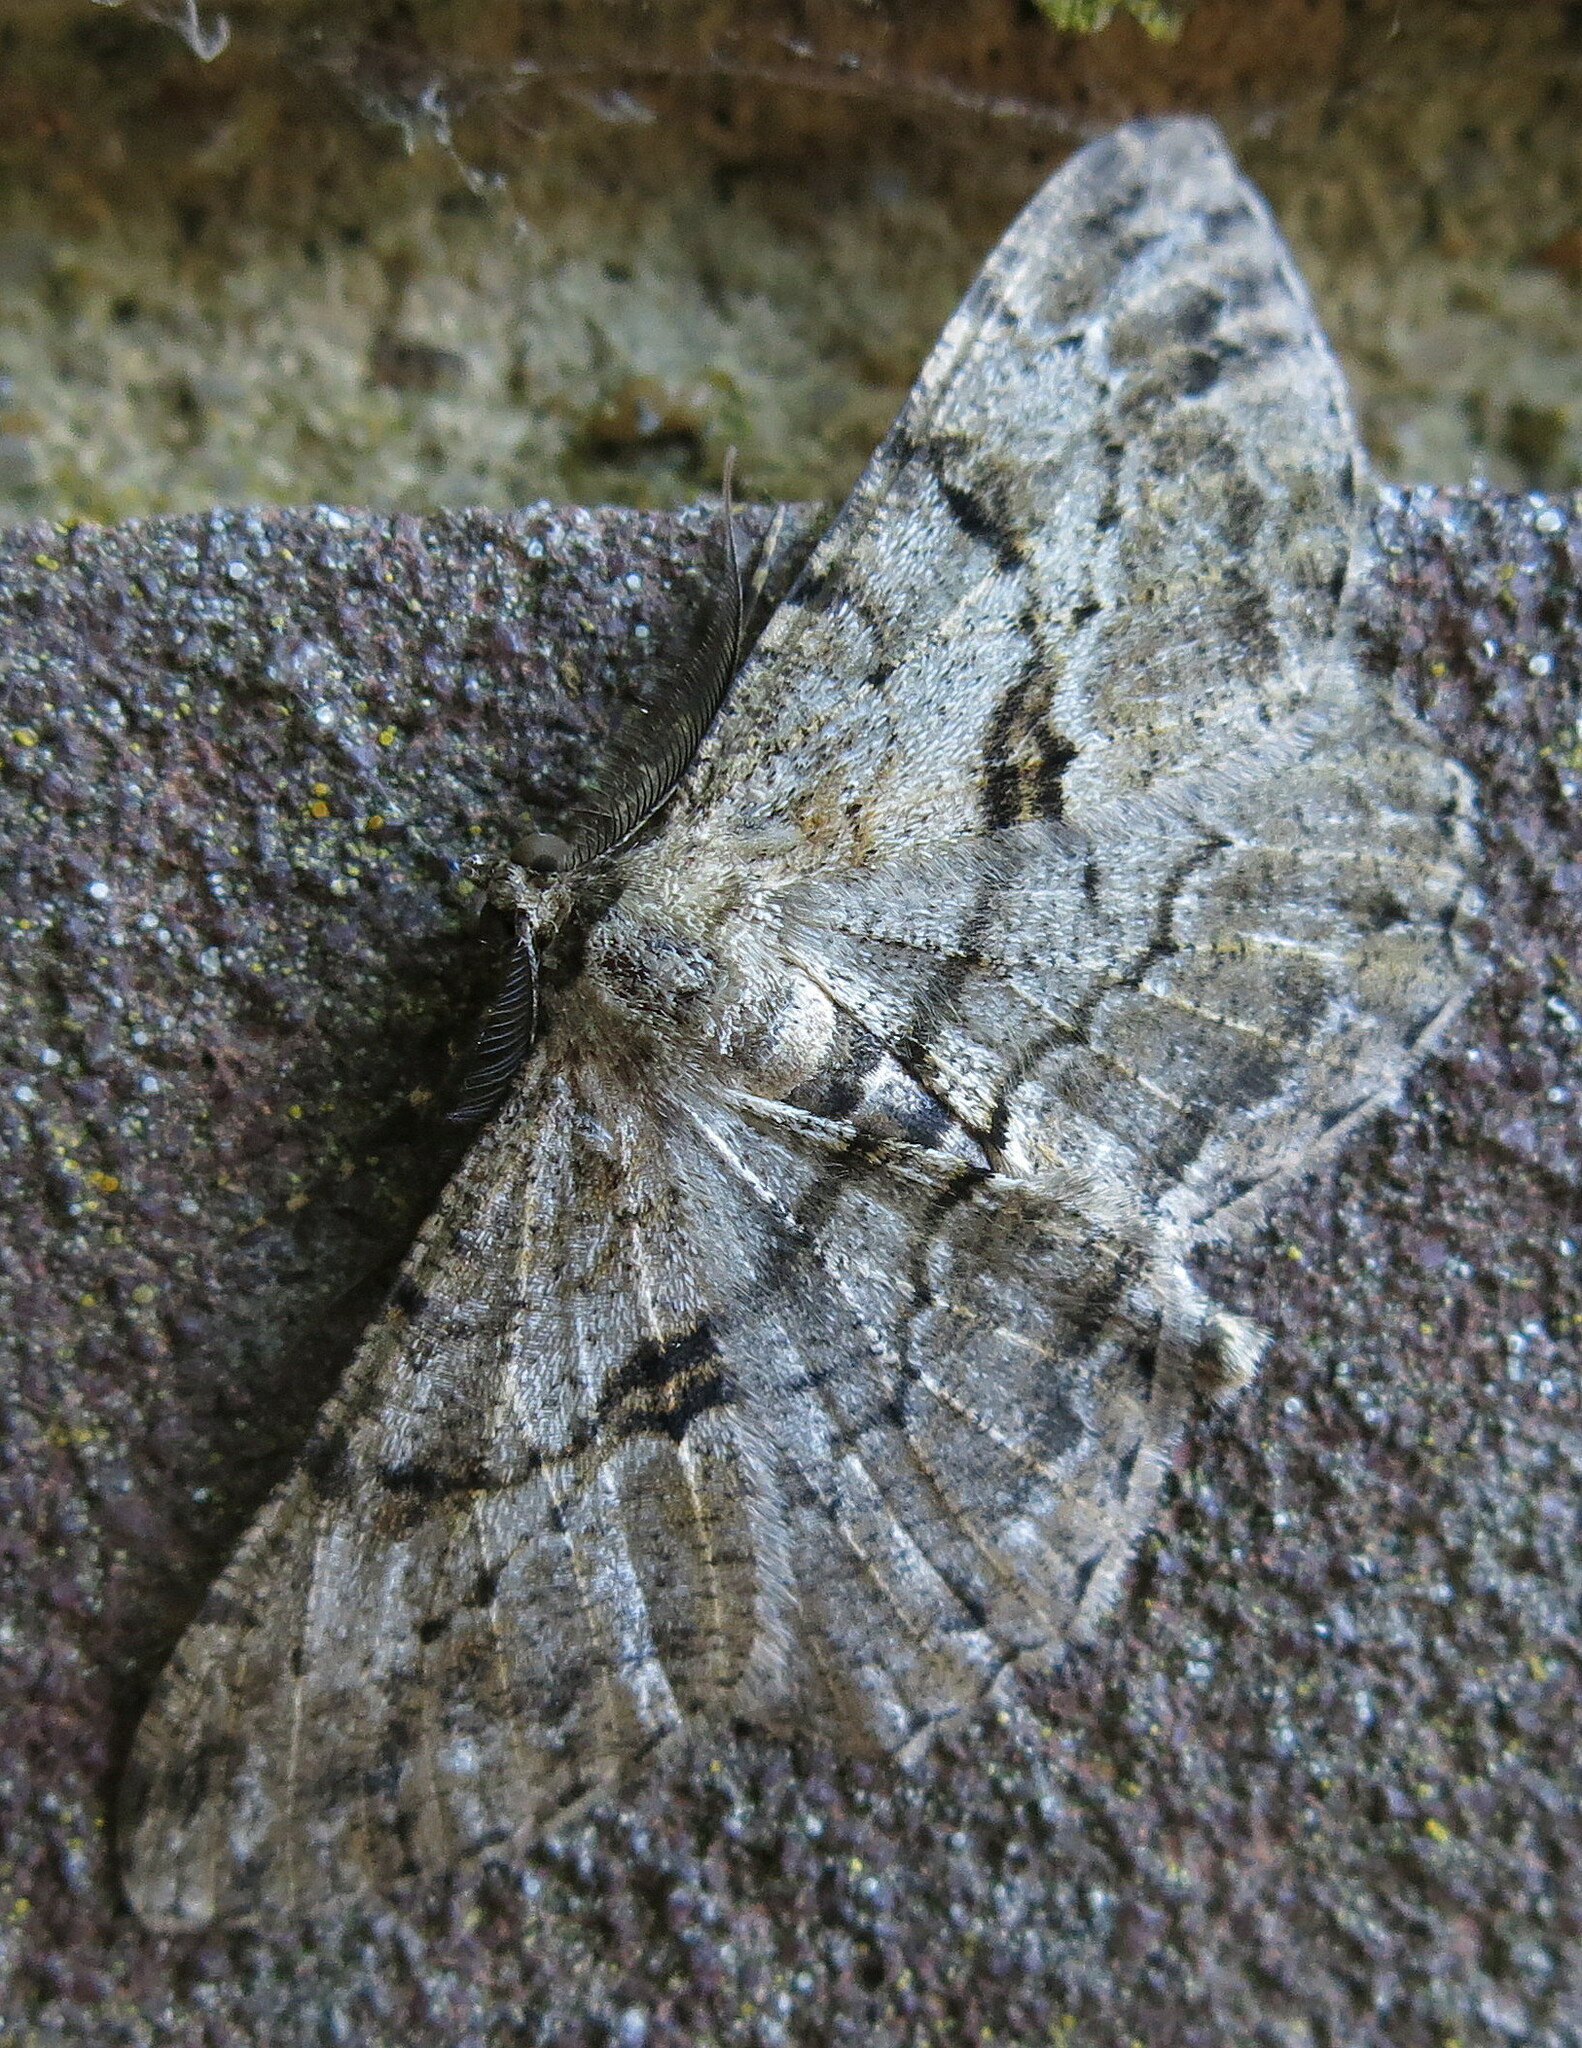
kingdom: Animalia
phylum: Arthropoda
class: Insecta
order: Lepidoptera
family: Geometridae
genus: Peribatodes
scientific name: Peribatodes rhomboidaria
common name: Willow beauty
